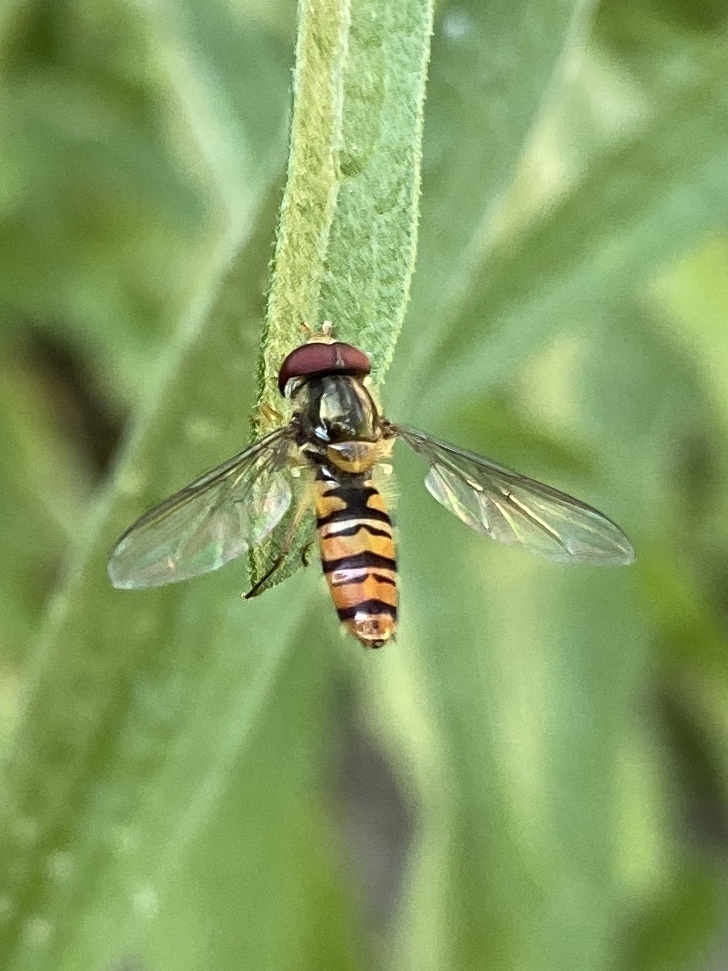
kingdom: Animalia
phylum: Arthropoda
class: Insecta
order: Diptera
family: Syrphidae
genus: Episyrphus
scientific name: Episyrphus balteatus
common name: Marmalade hoverfly
